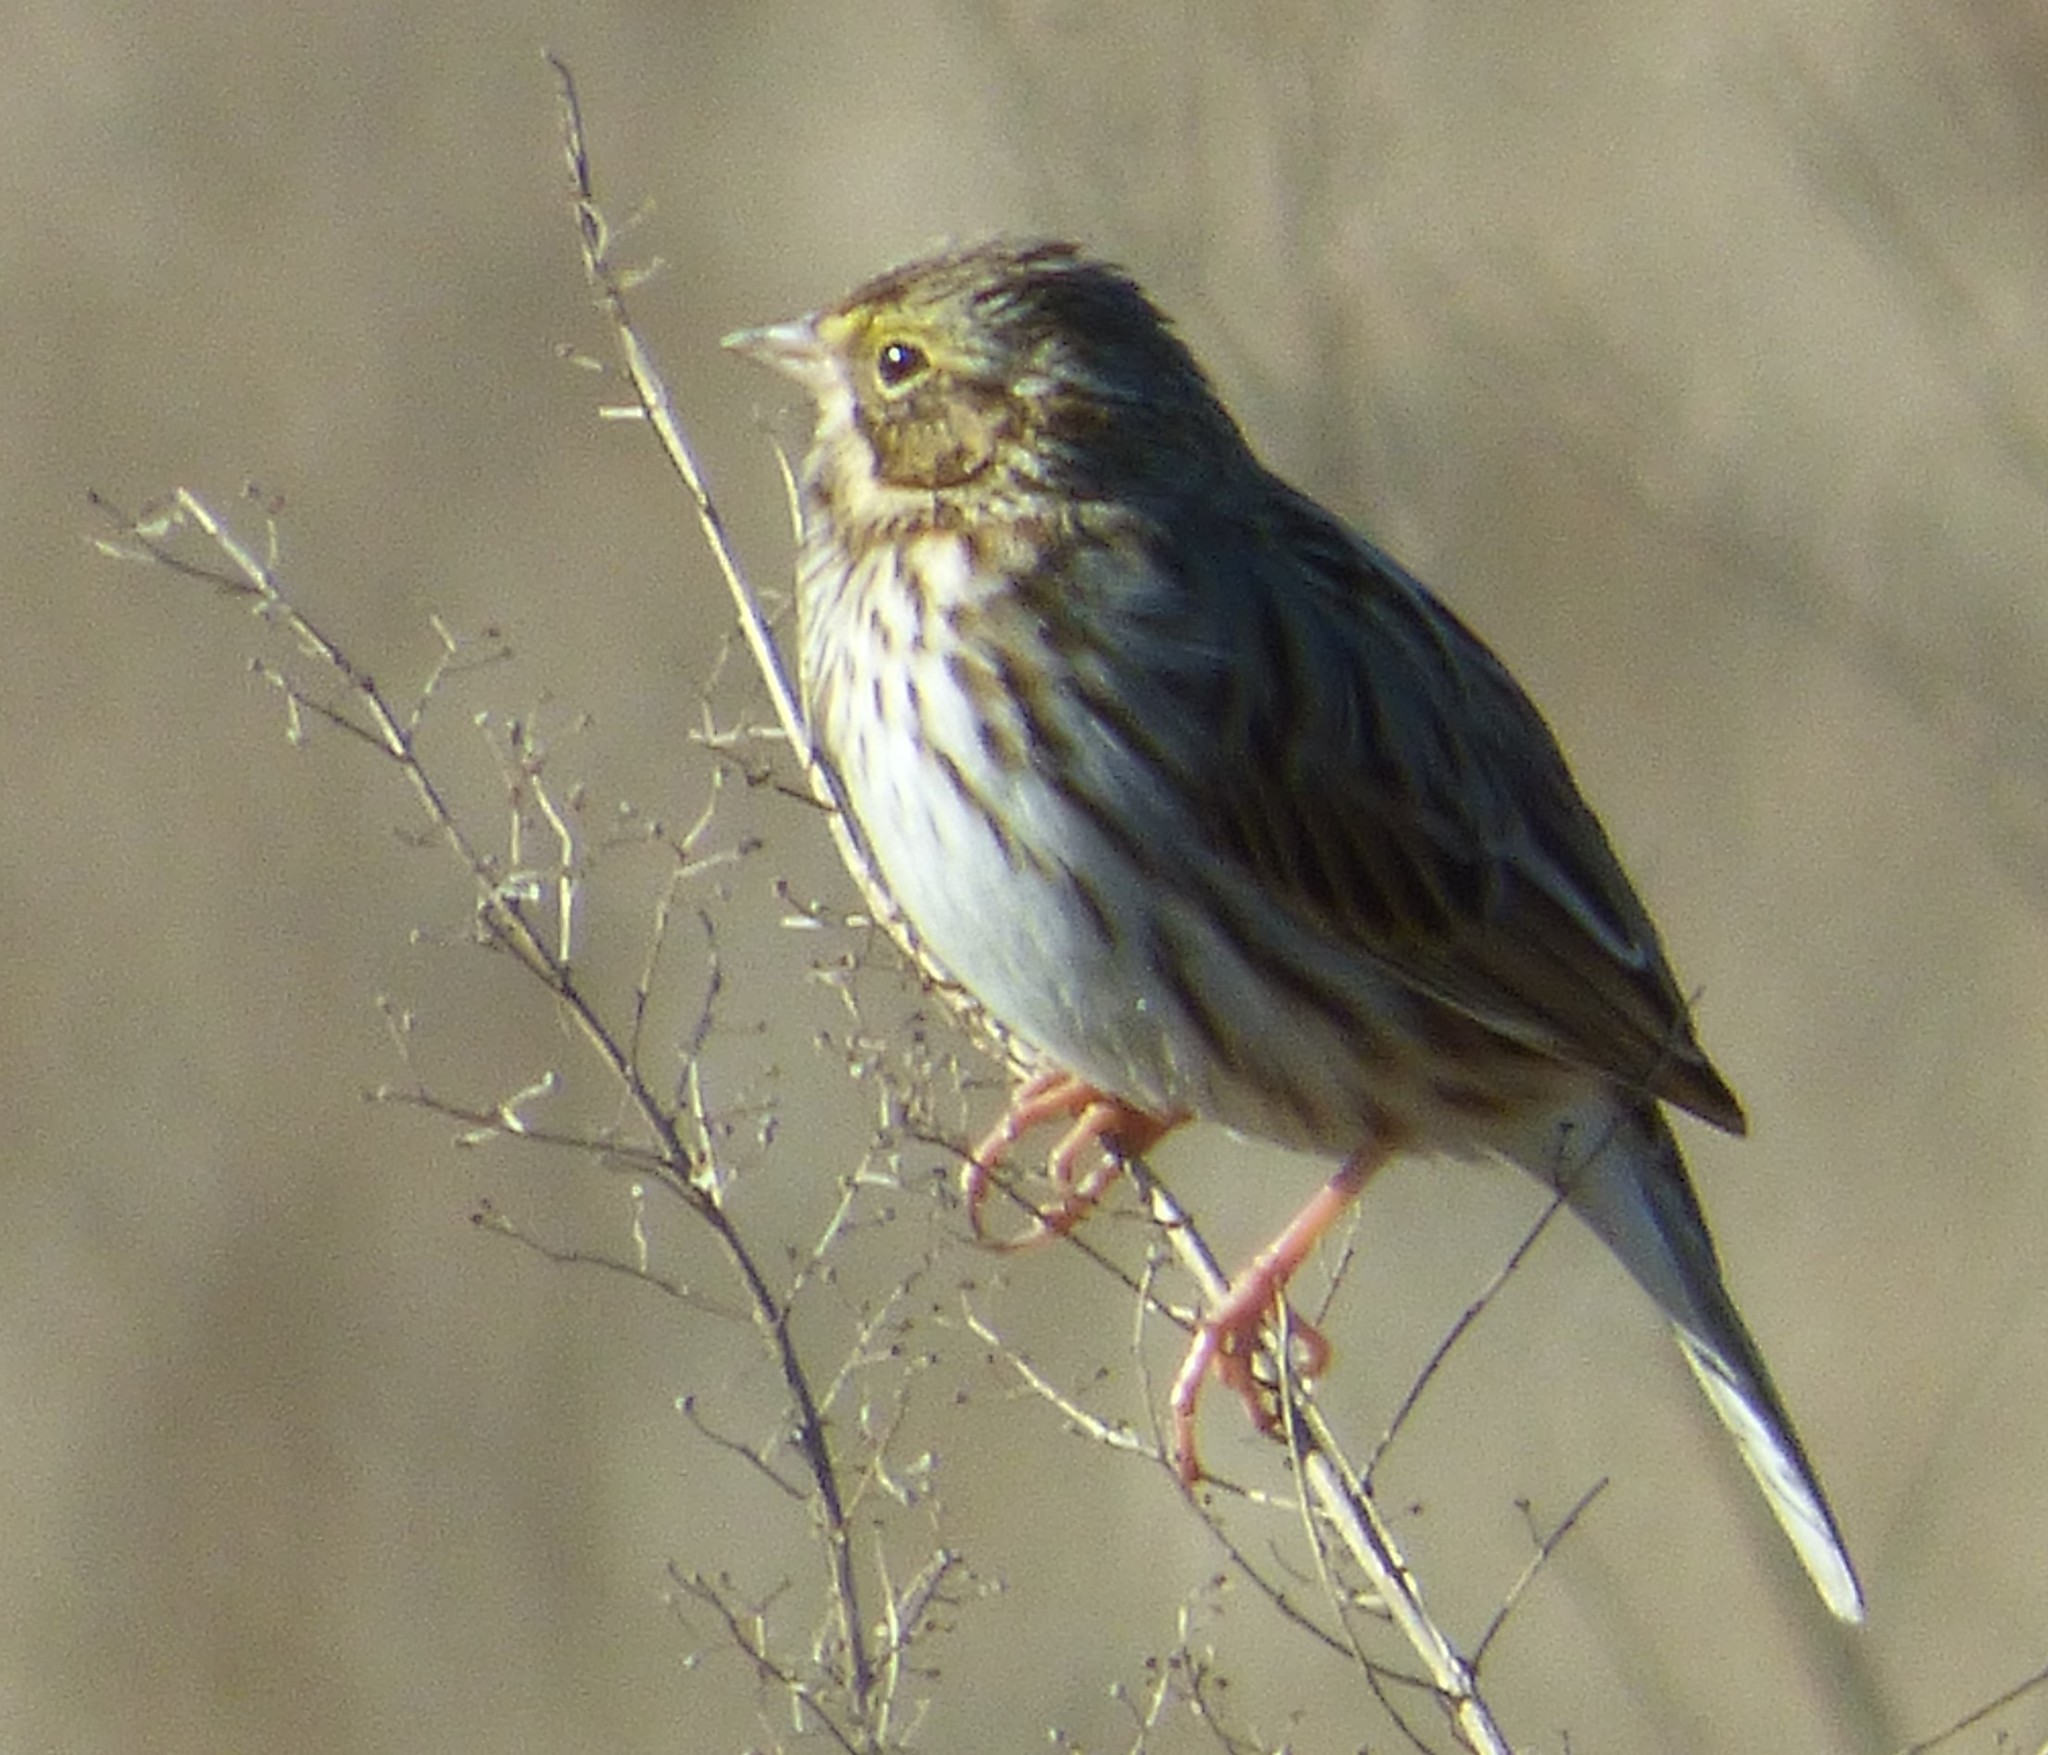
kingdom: Animalia
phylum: Chordata
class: Aves
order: Passeriformes
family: Passerellidae
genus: Passerculus
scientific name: Passerculus sandwichensis
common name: Savannah sparrow
